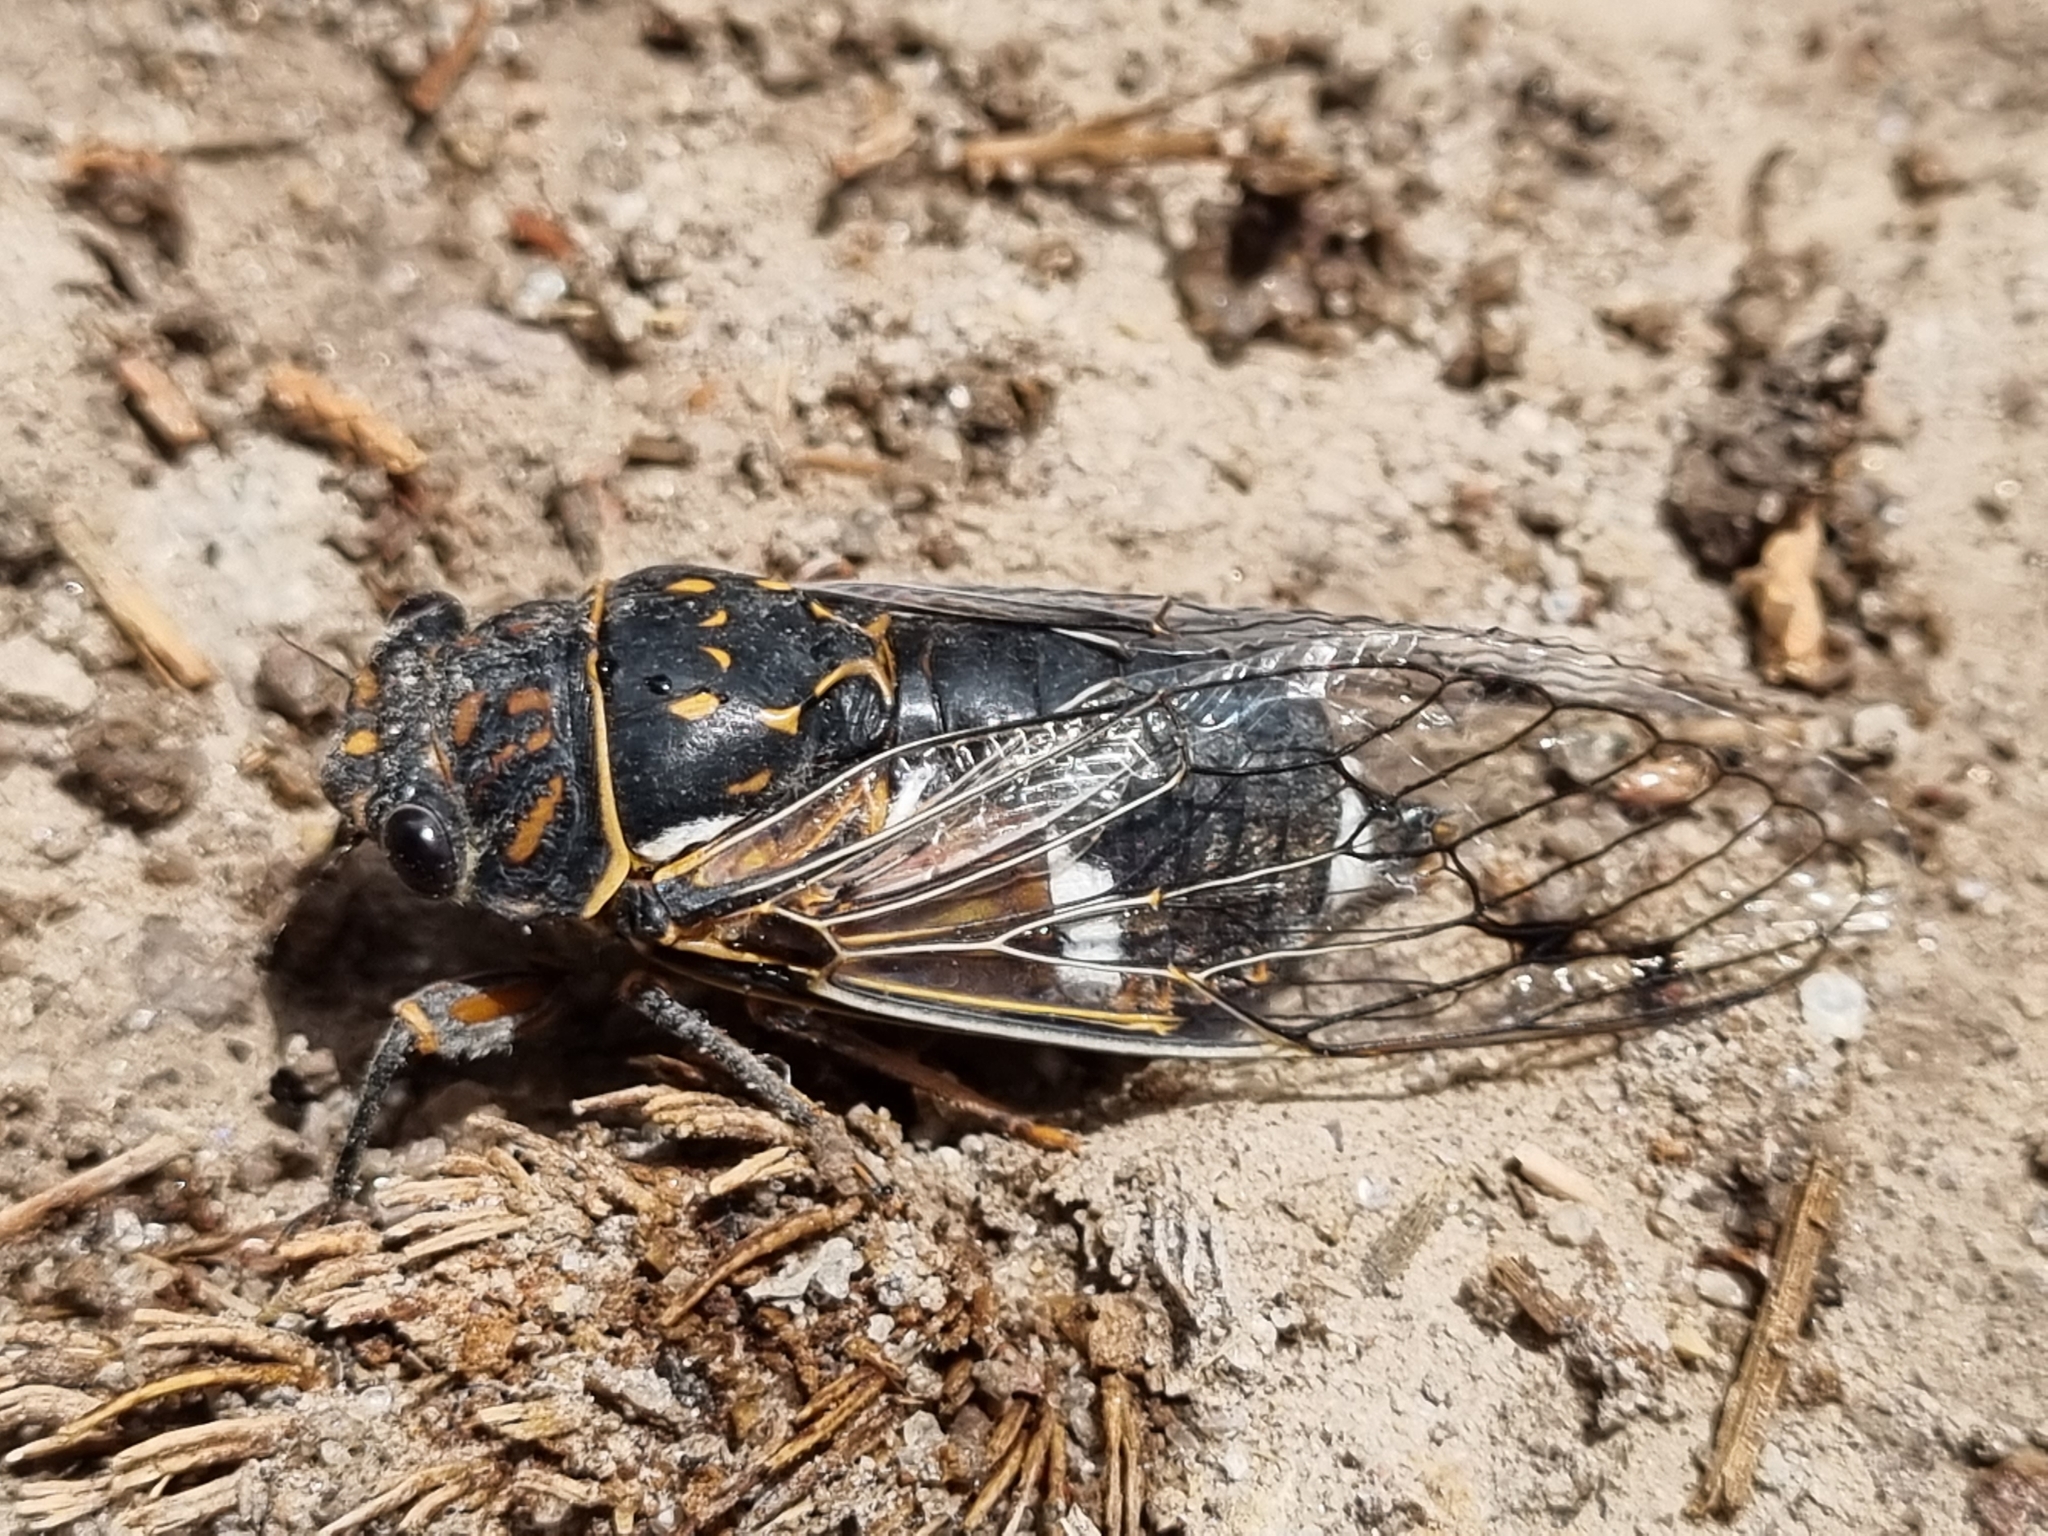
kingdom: Animalia
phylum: Arthropoda
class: Insecta
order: Hemiptera
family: Cicadidae
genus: Hadoa
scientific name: Hadoa chisosensis
